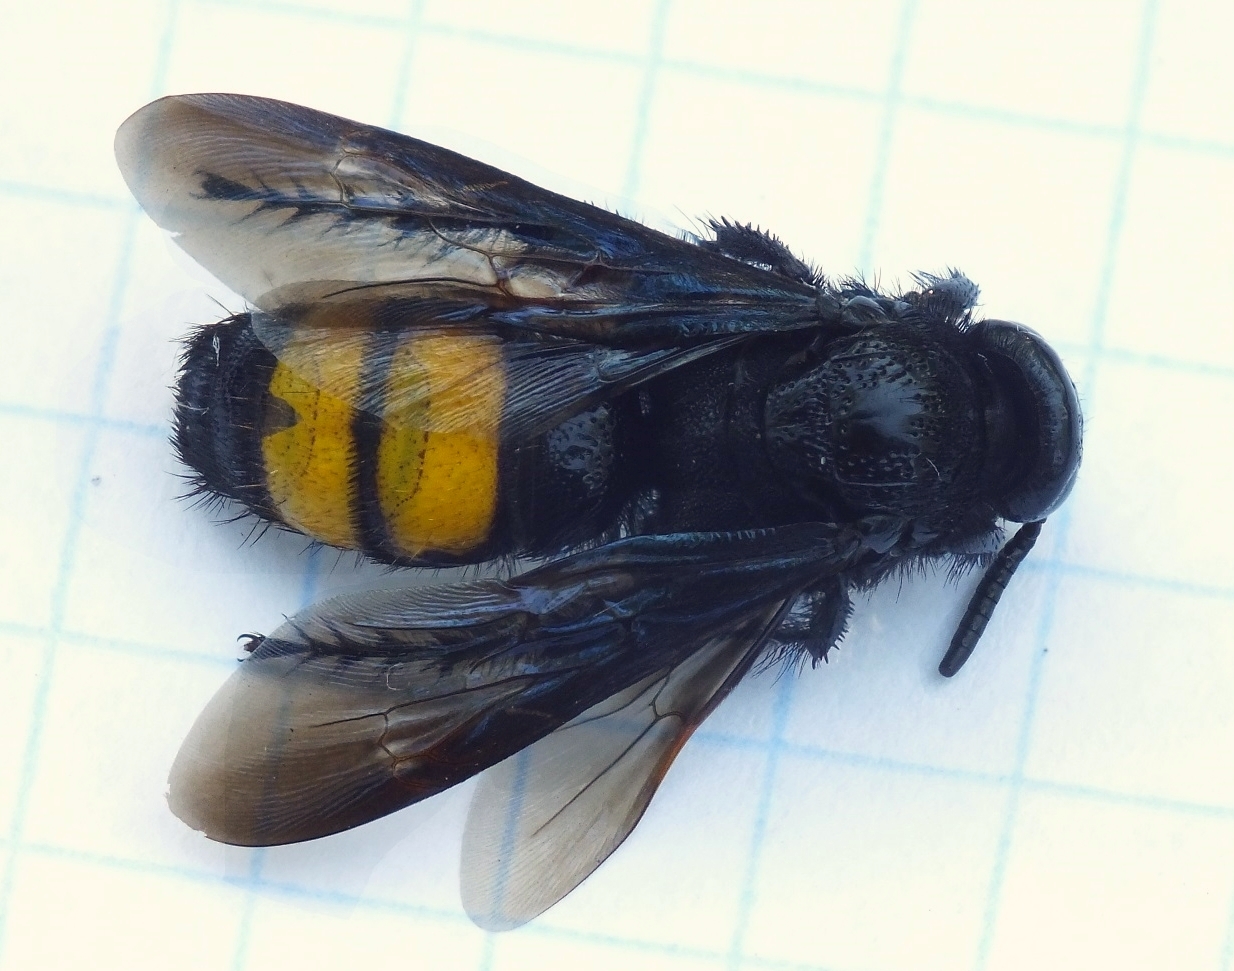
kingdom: Animalia
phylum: Arthropoda
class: Insecta
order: Hymenoptera
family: Scoliidae
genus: Scolia
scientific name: Scolia hirta
